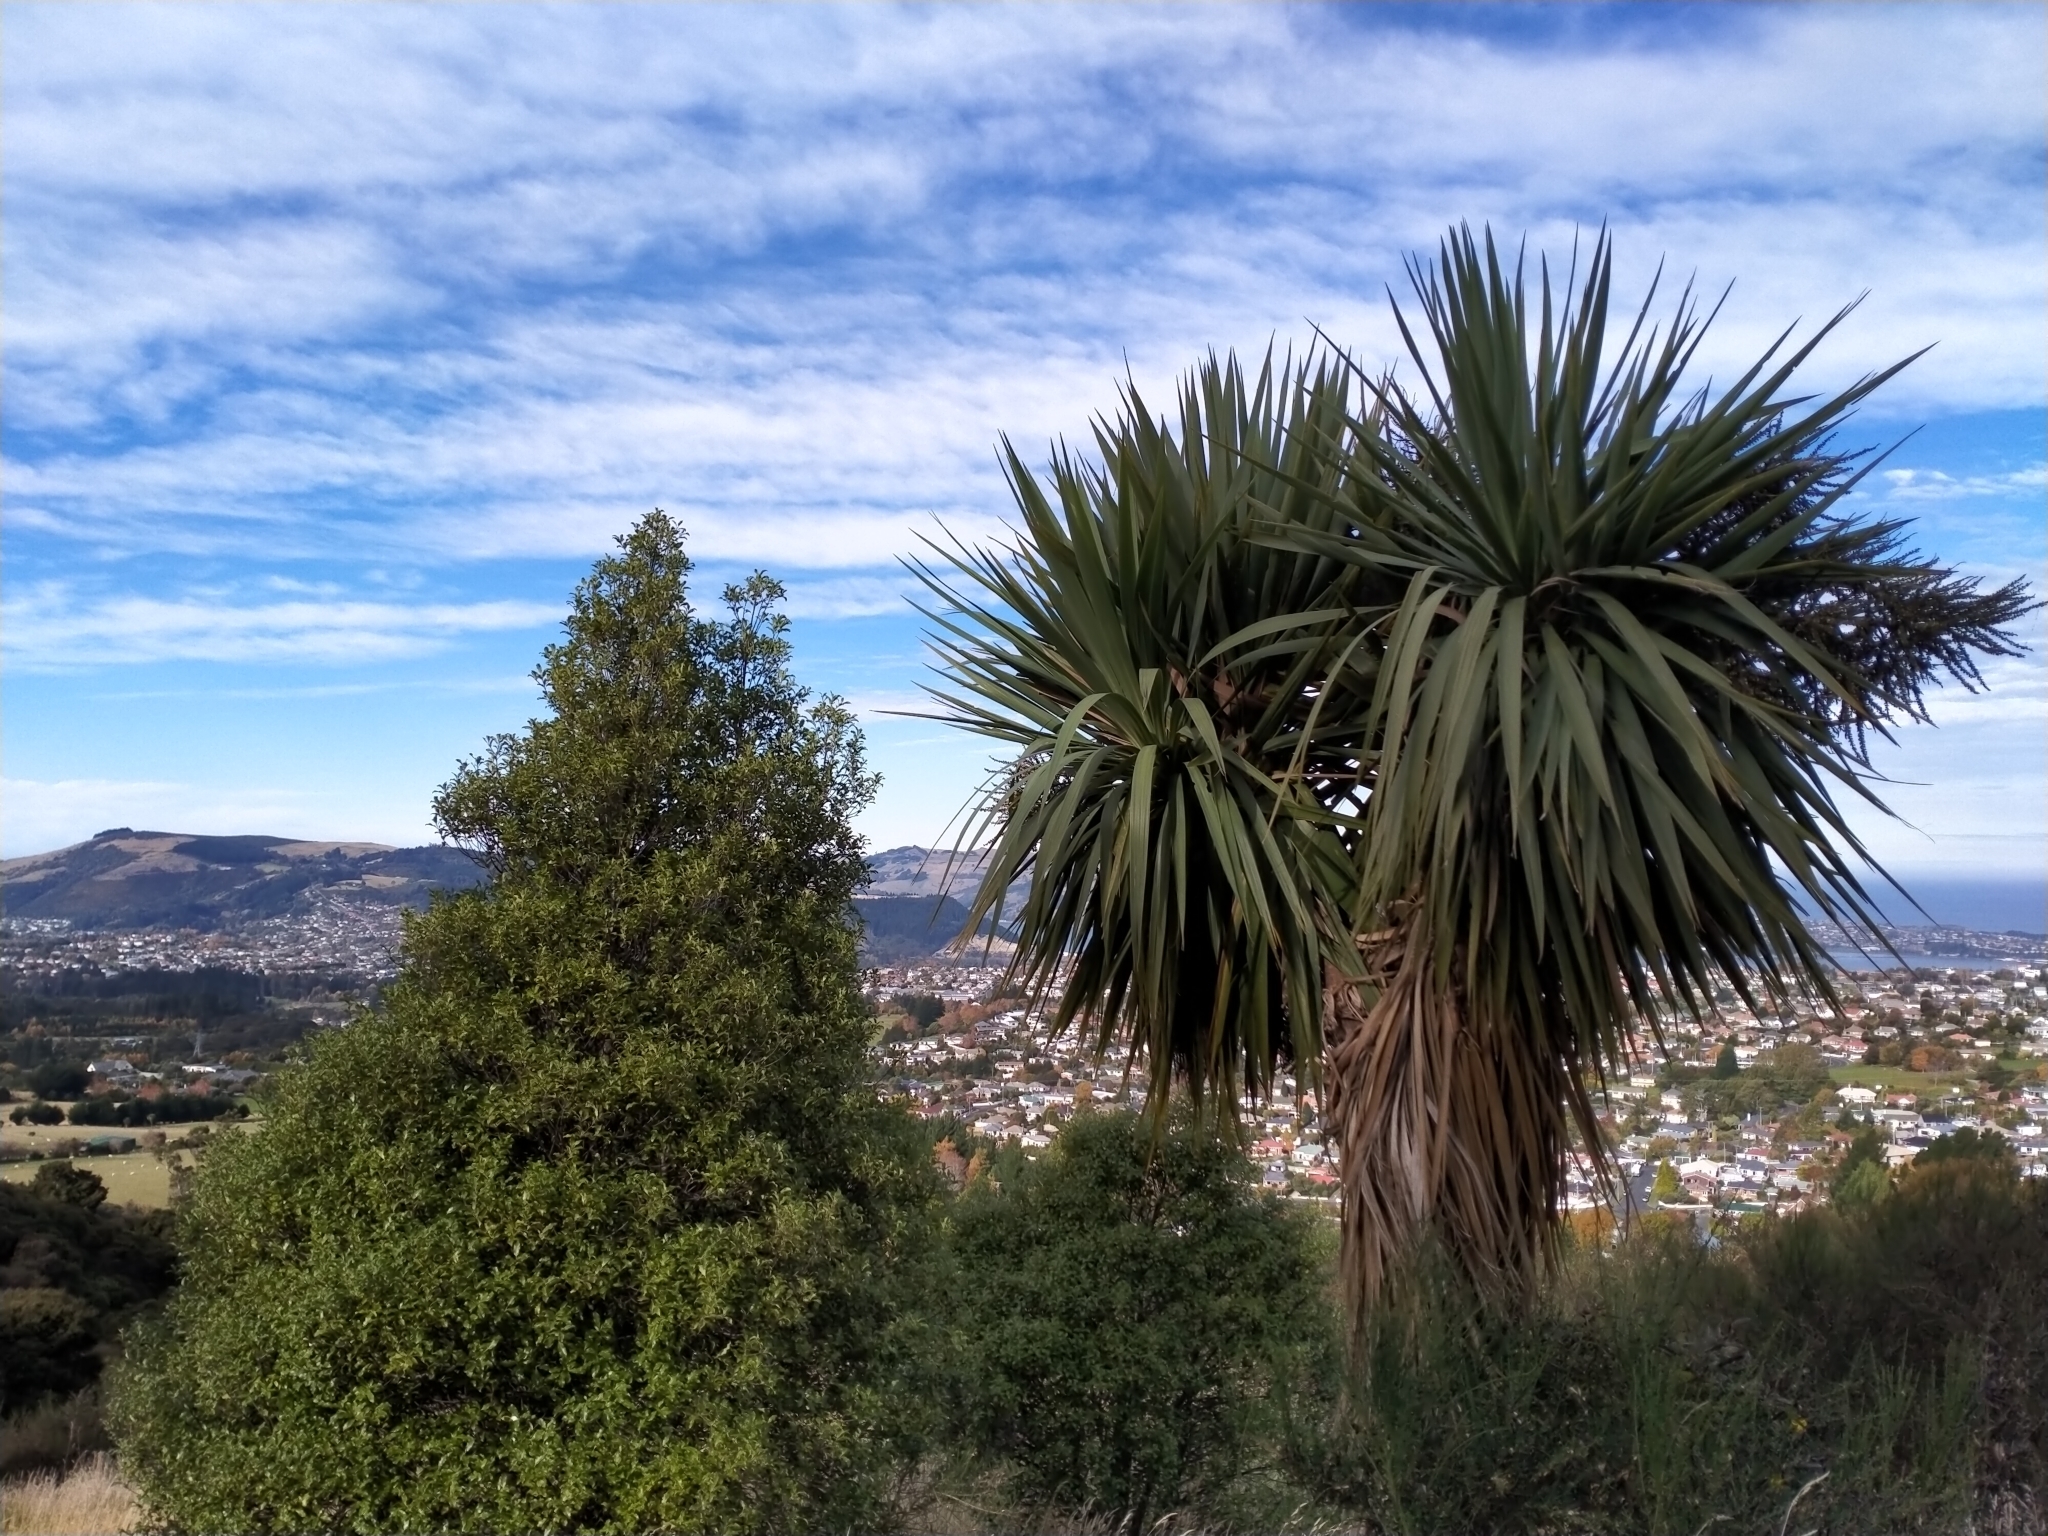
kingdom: Plantae
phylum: Tracheophyta
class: Liliopsida
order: Asparagales
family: Asparagaceae
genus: Cordyline
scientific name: Cordyline australis
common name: Cabbage-palm
